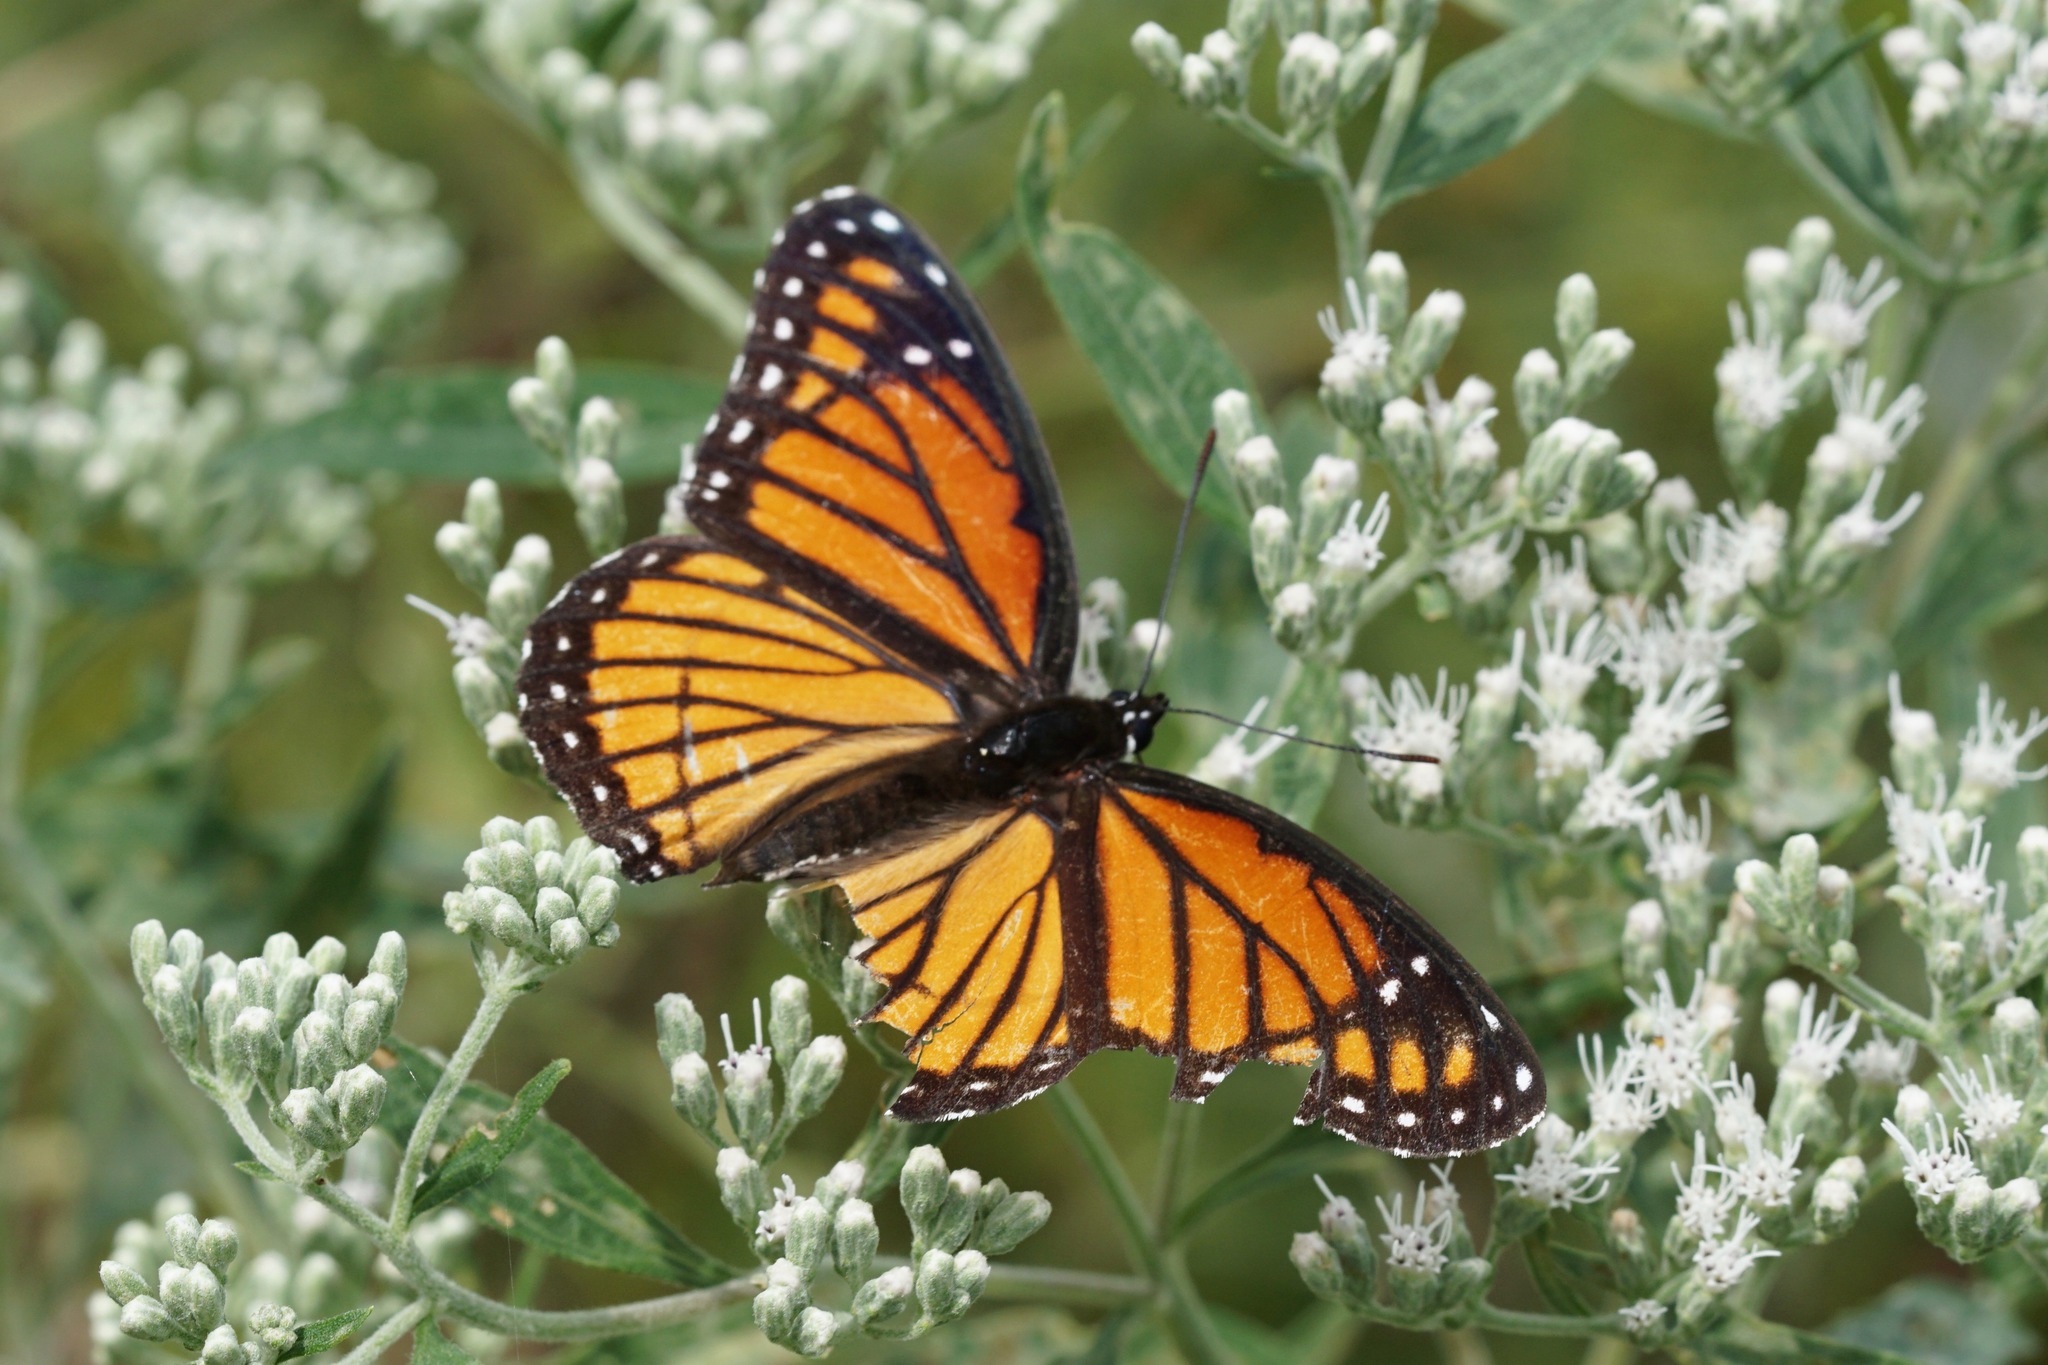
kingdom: Animalia
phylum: Arthropoda
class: Insecta
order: Lepidoptera
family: Nymphalidae
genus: Limenitis
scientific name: Limenitis archippus
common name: Viceroy
